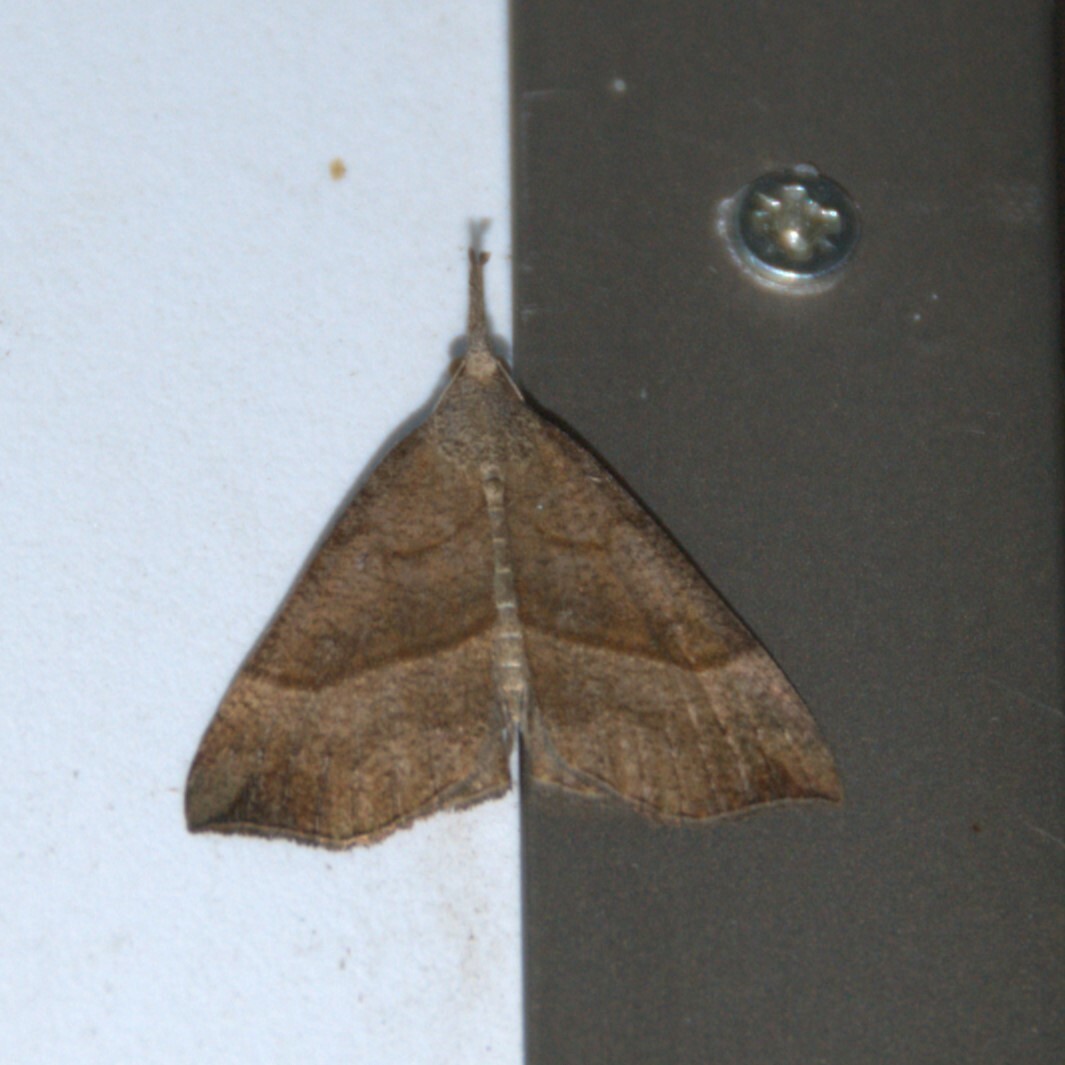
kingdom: Animalia
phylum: Arthropoda
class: Insecta
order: Lepidoptera
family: Erebidae
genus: Hypena
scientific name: Hypena proboscidalis
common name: Snout
